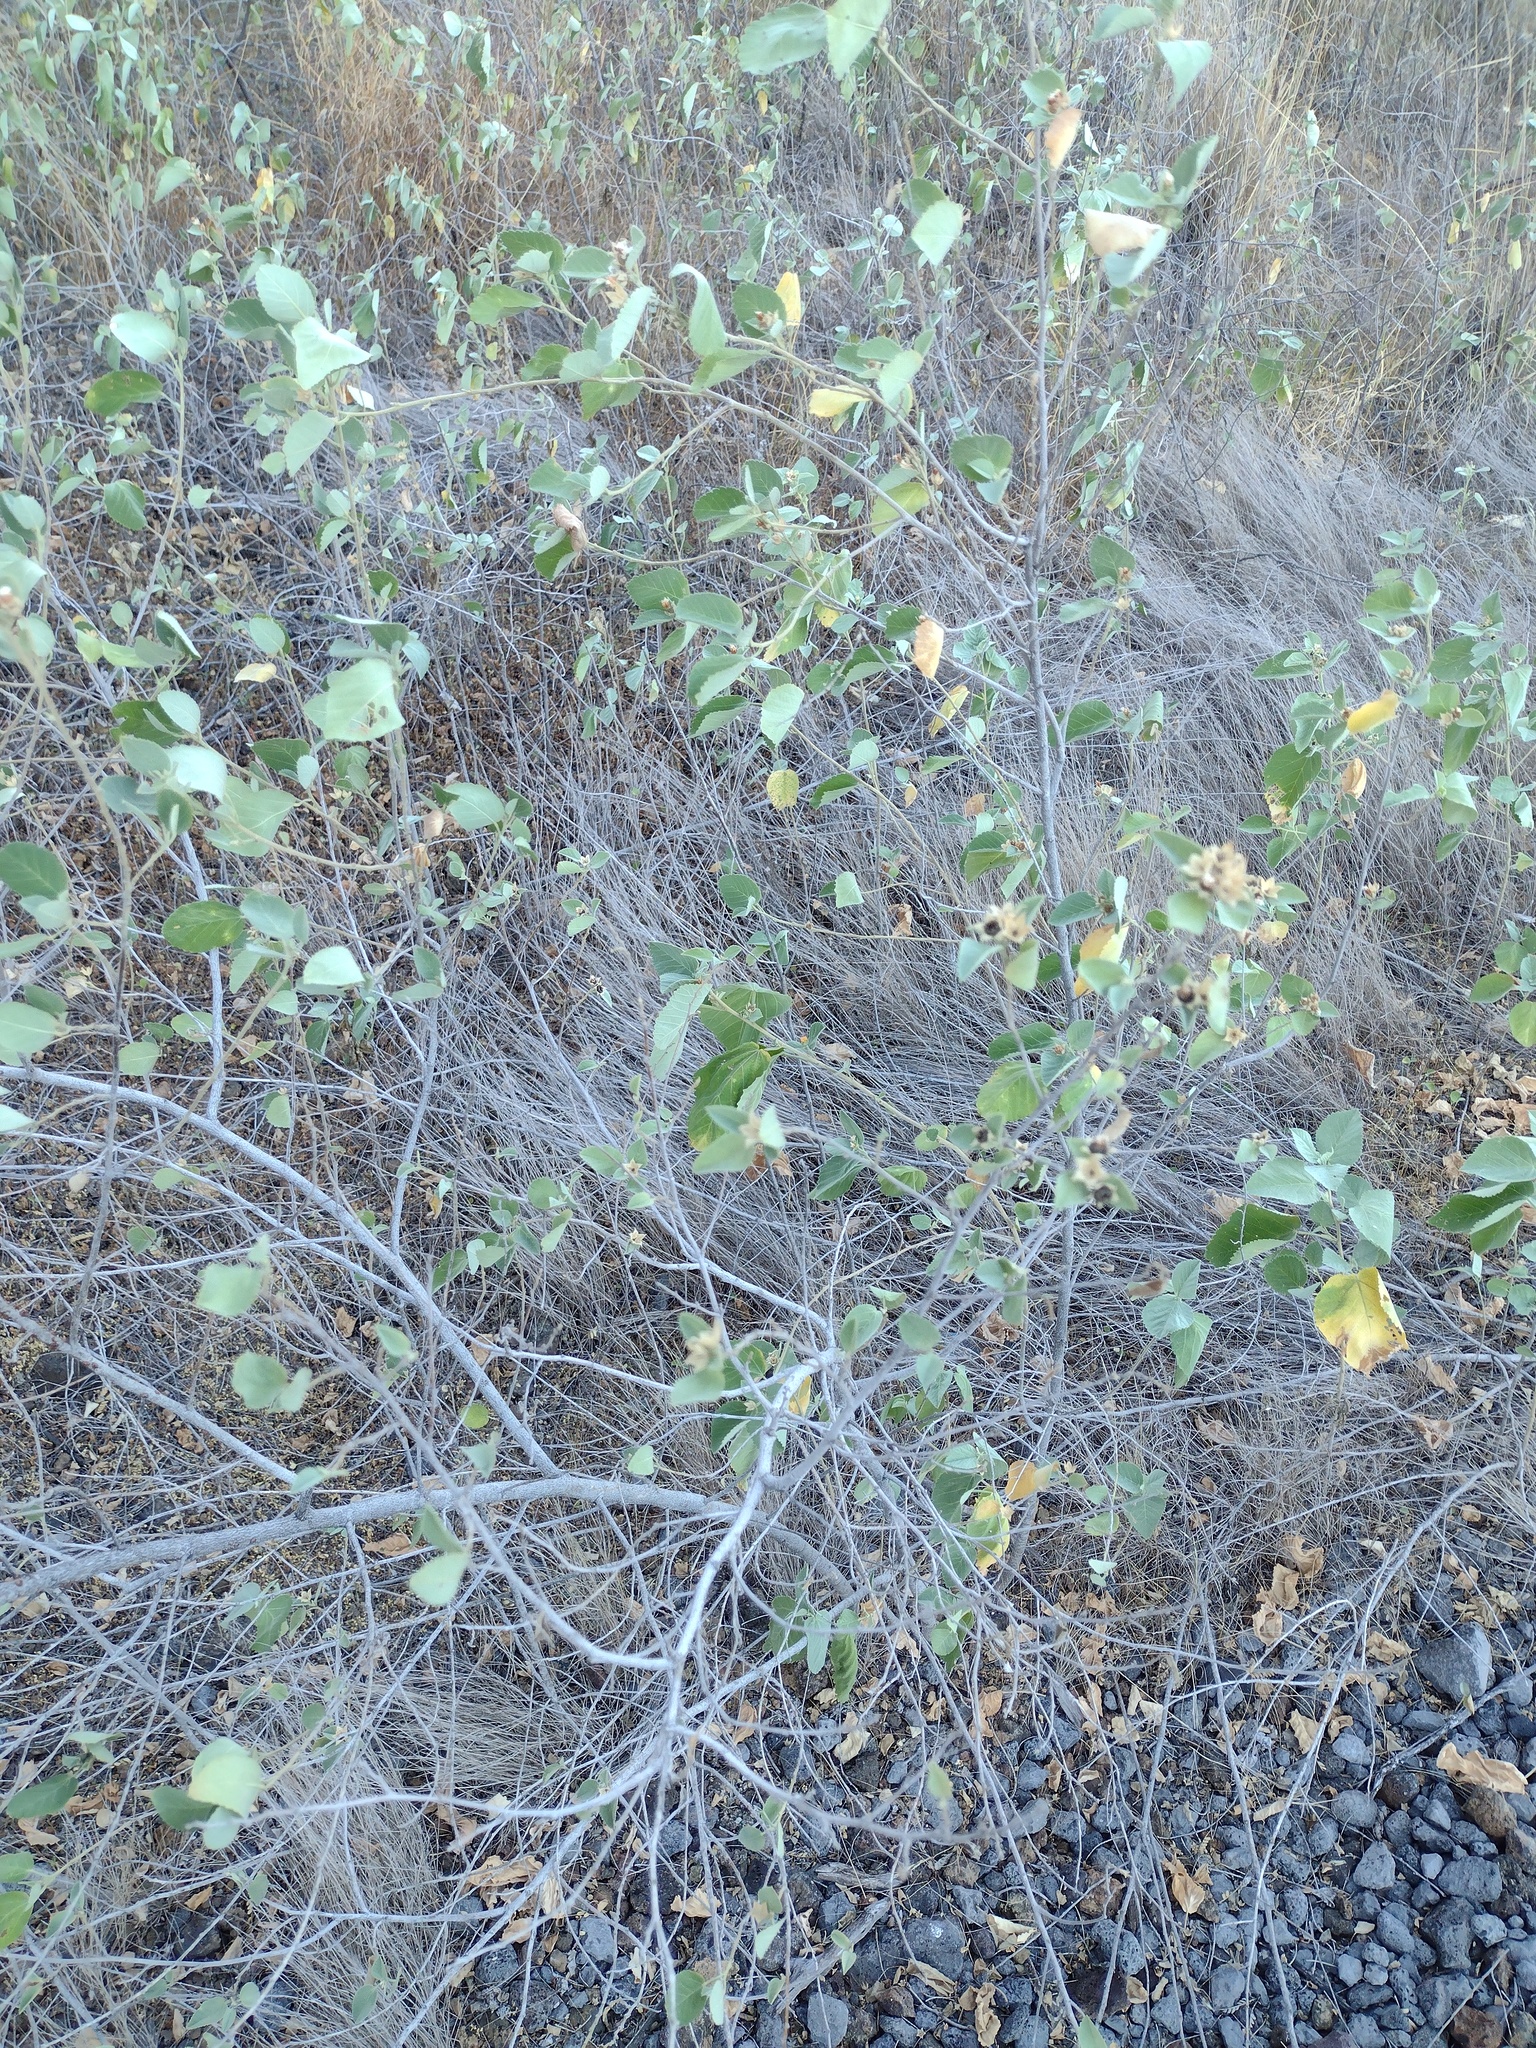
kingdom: Plantae
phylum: Tracheophyta
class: Magnoliopsida
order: Malvales
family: Malvaceae
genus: Sida
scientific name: Sida fallax
